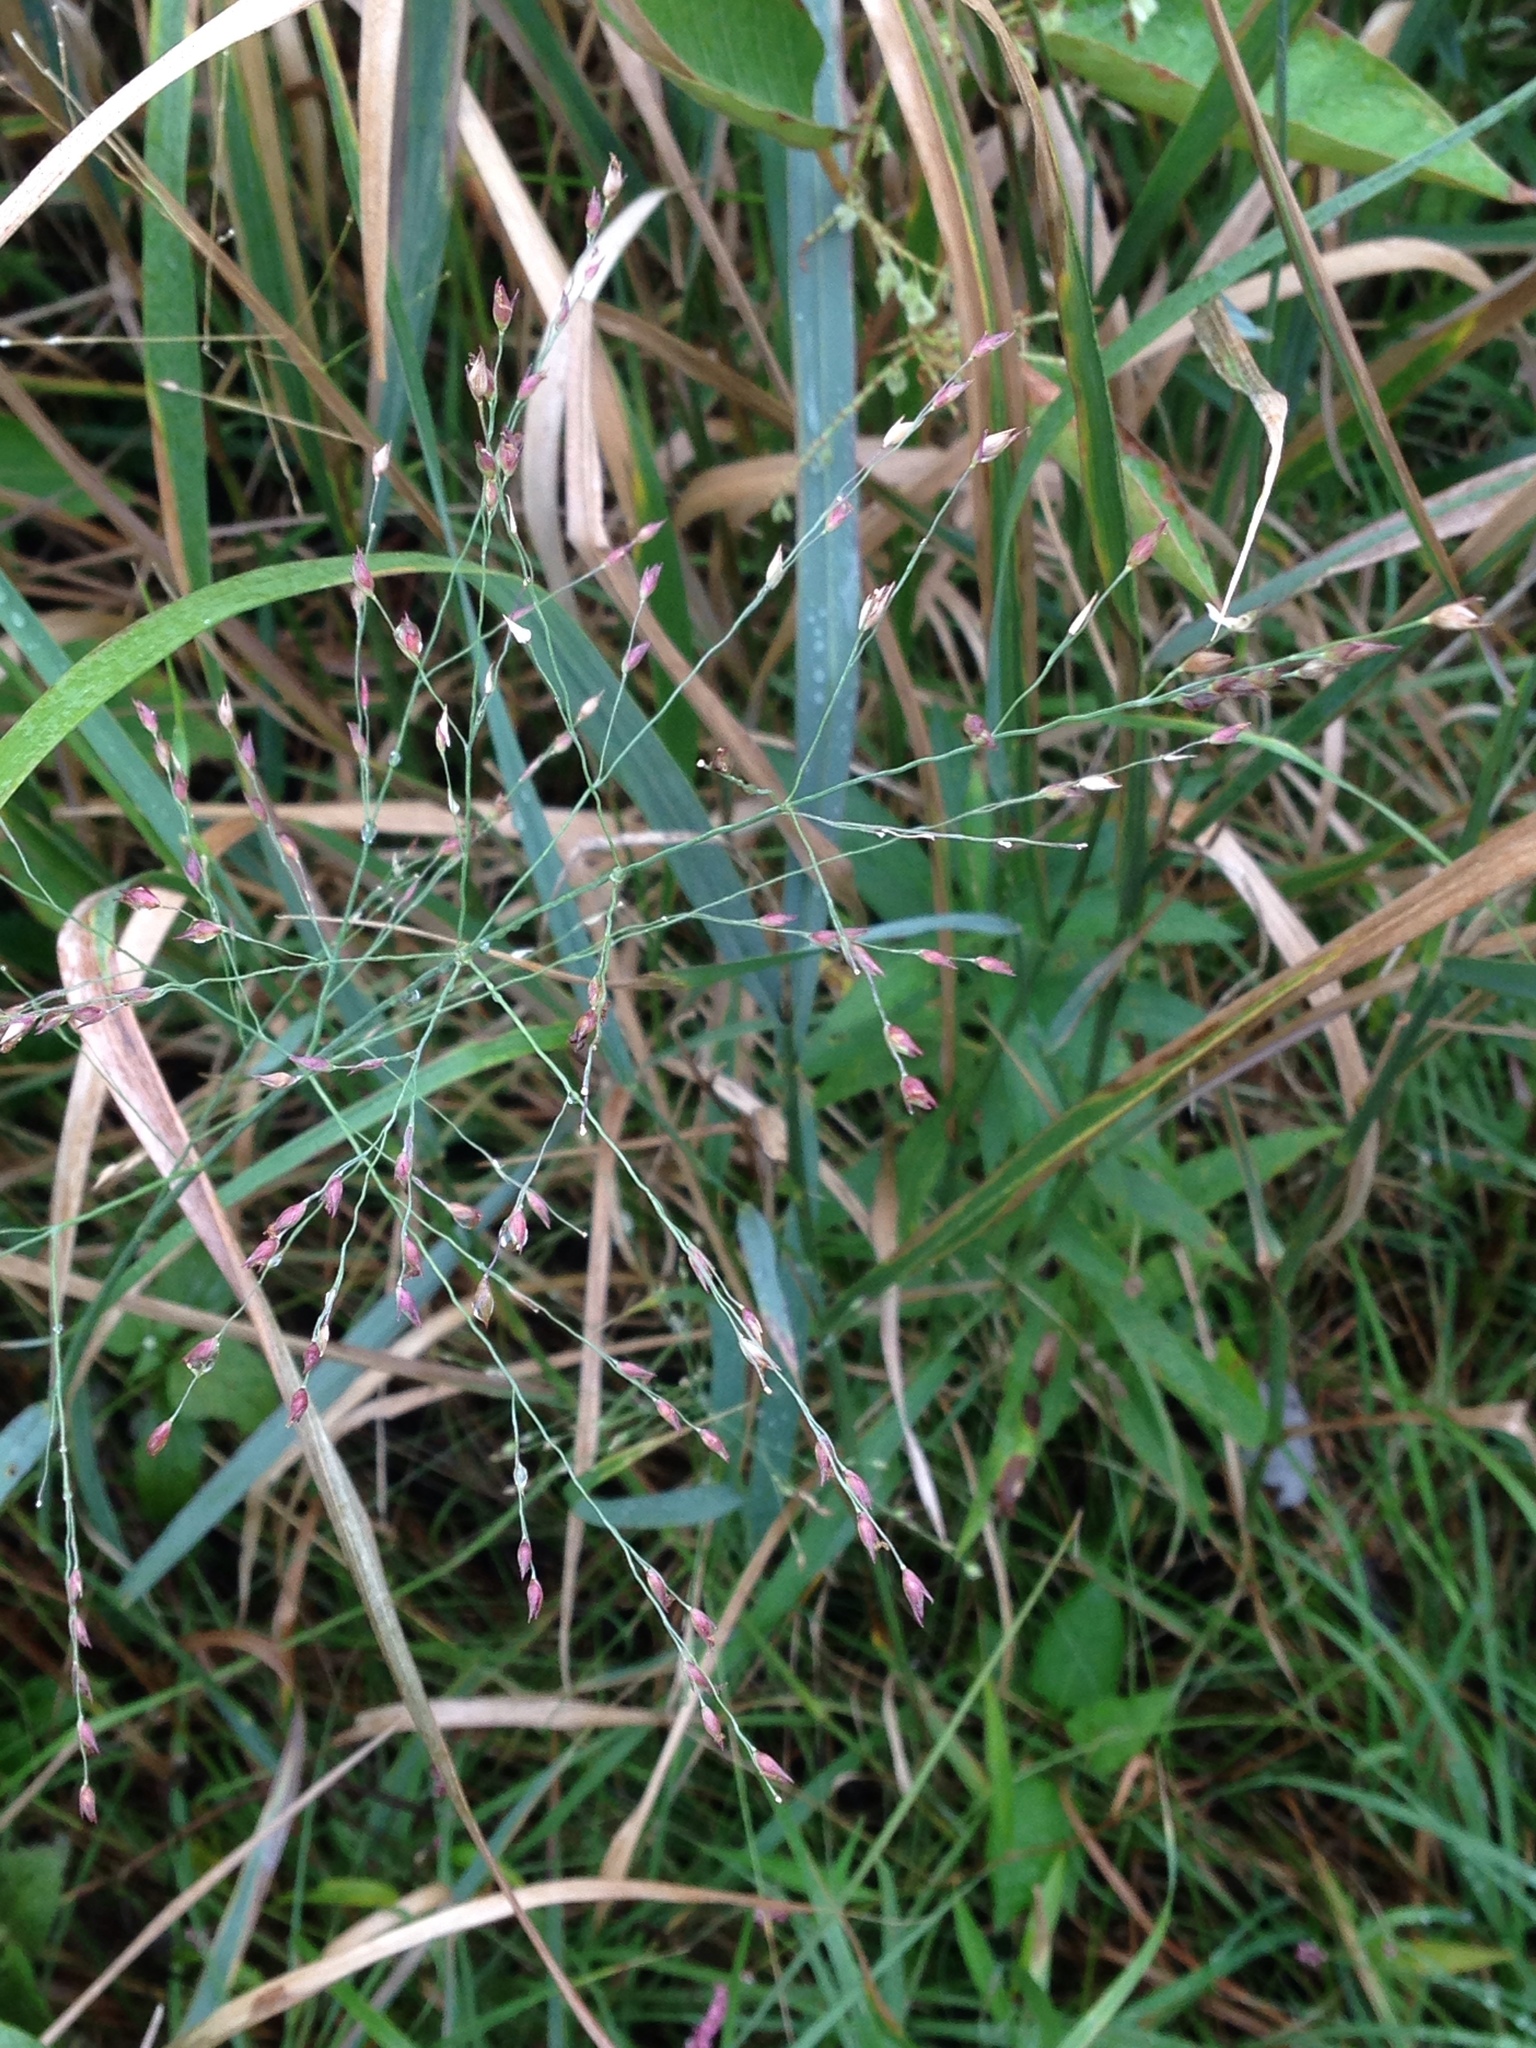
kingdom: Plantae
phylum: Tracheophyta
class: Liliopsida
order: Poales
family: Poaceae
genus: Panicum
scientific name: Panicum virgatum
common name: Switchgrass
